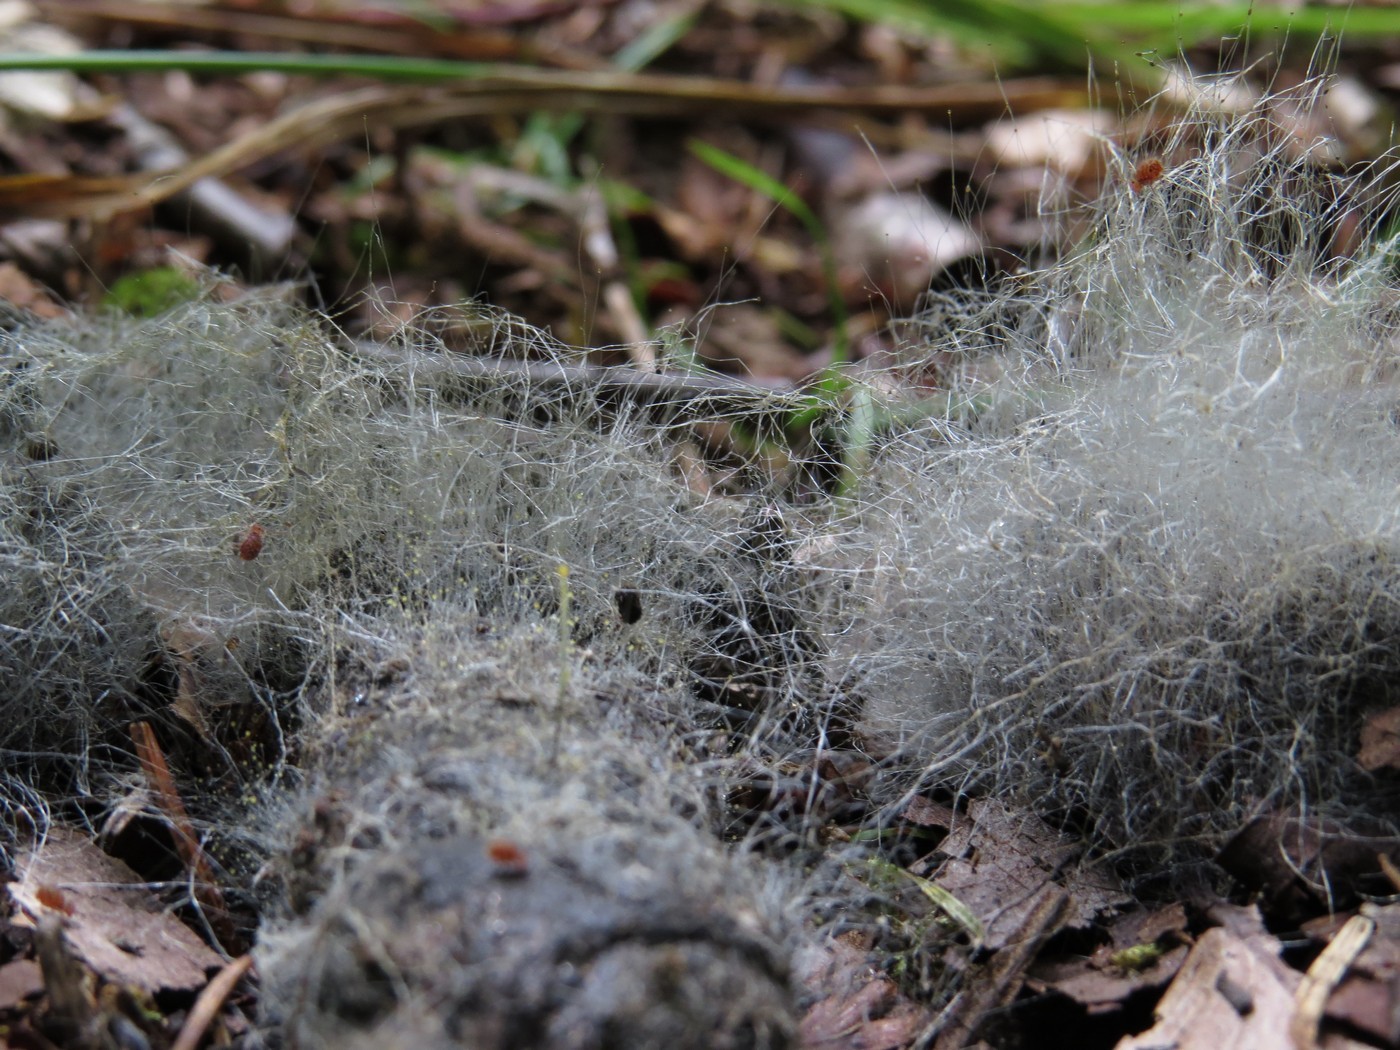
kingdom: Fungi
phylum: Mucoromycota
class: Mucoromycetes
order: Mucorales
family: Phycomycetaceae
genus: Phycomyces
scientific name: Phycomyces
